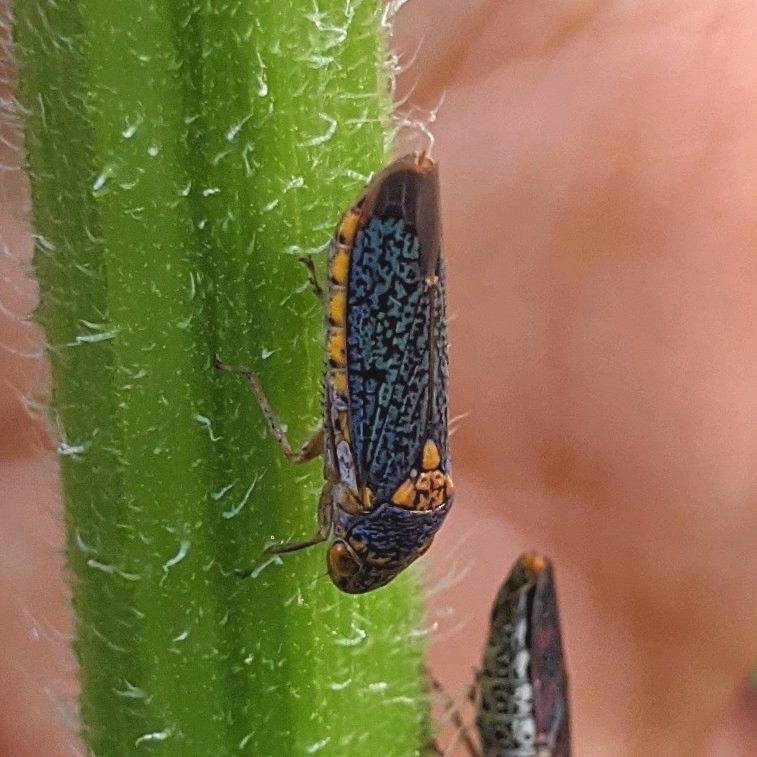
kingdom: Animalia
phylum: Arthropoda
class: Insecta
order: Hemiptera
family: Cicadellidae
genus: Oncometopia
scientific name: Oncometopia orbona
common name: Broad-headed sharpshooter
